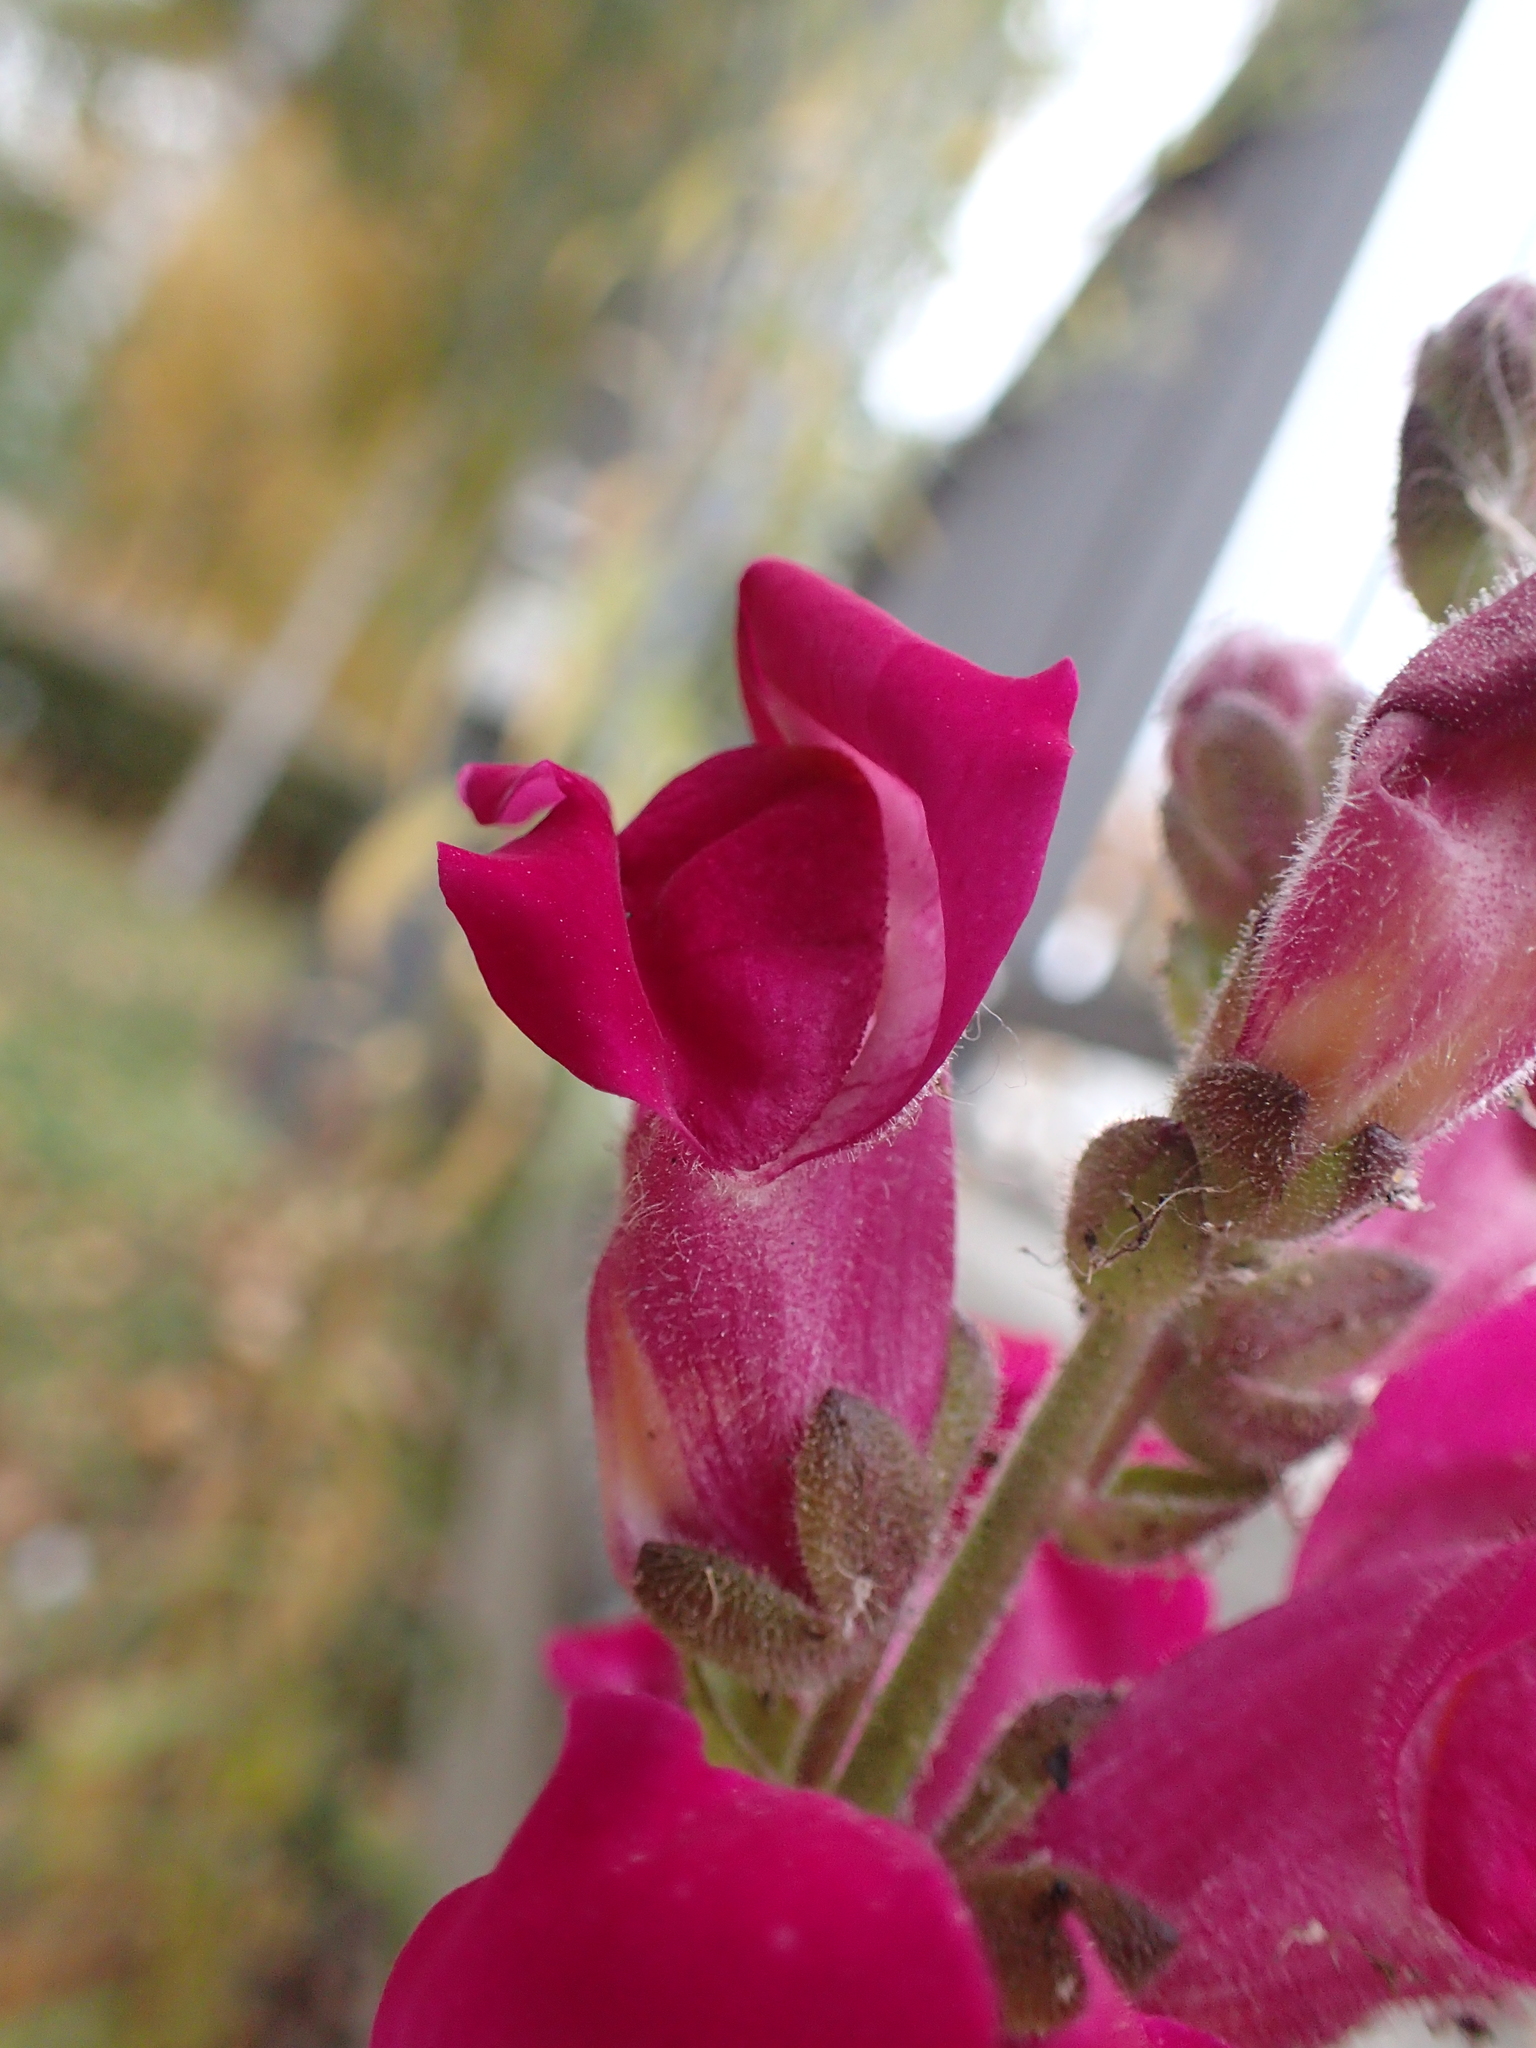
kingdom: Plantae
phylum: Tracheophyta
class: Magnoliopsida
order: Lamiales
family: Plantaginaceae
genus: Antirrhinum
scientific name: Antirrhinum majus
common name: Snapdragon
